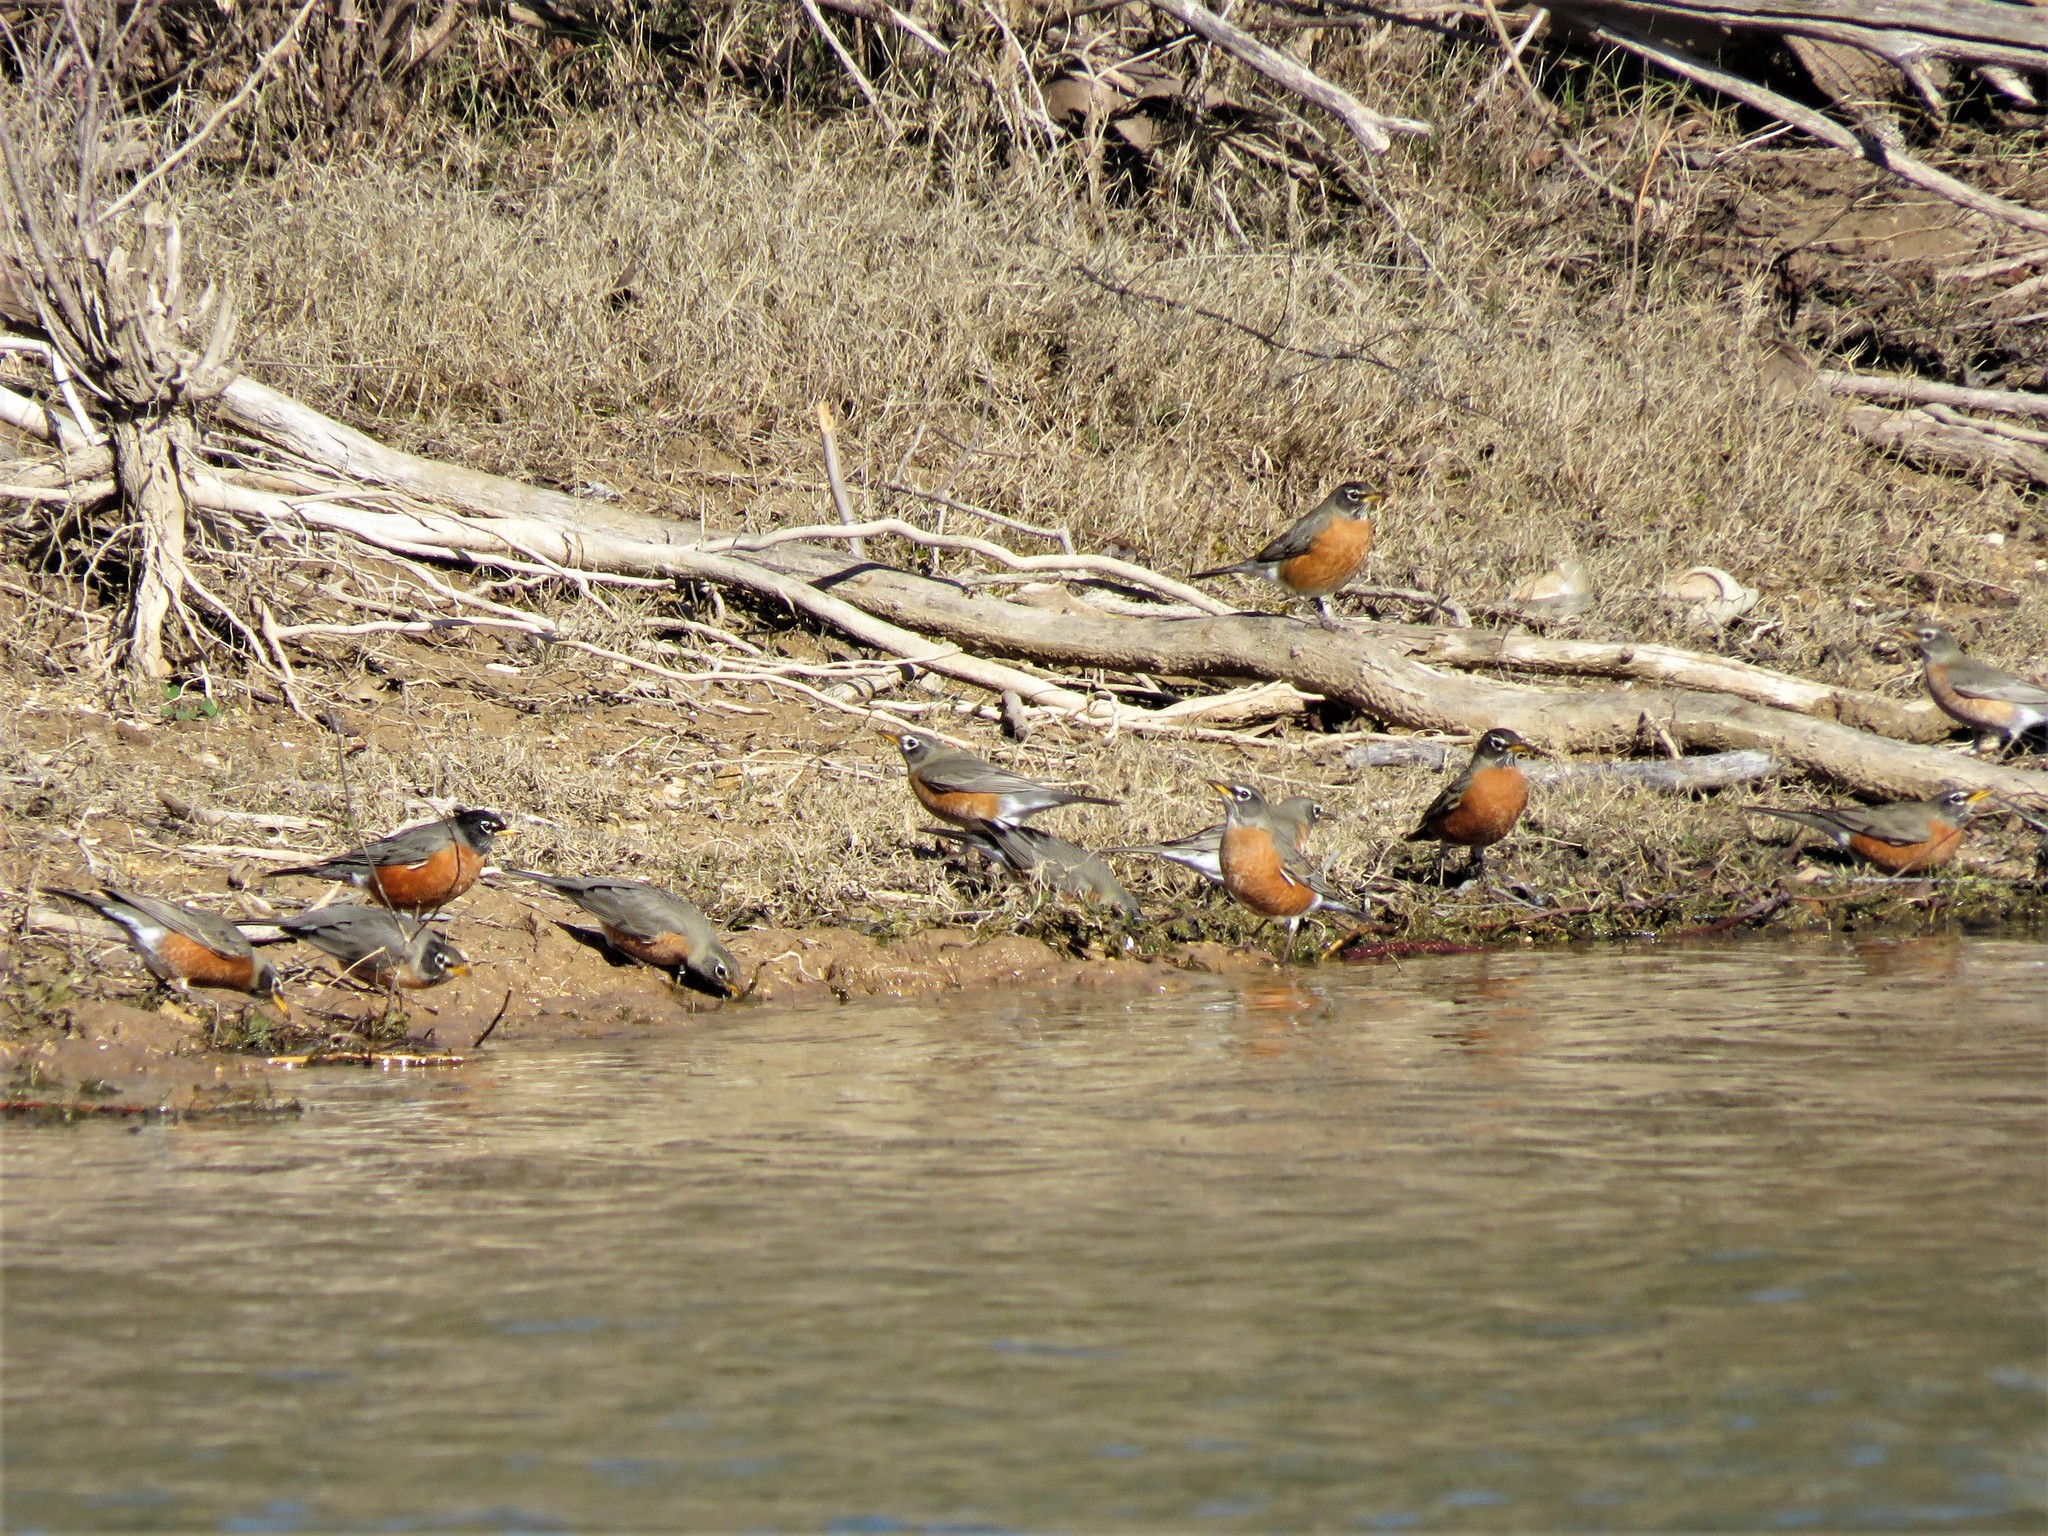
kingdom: Animalia
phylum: Chordata
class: Aves
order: Passeriformes
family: Turdidae
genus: Turdus
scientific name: Turdus migratorius
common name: American robin
